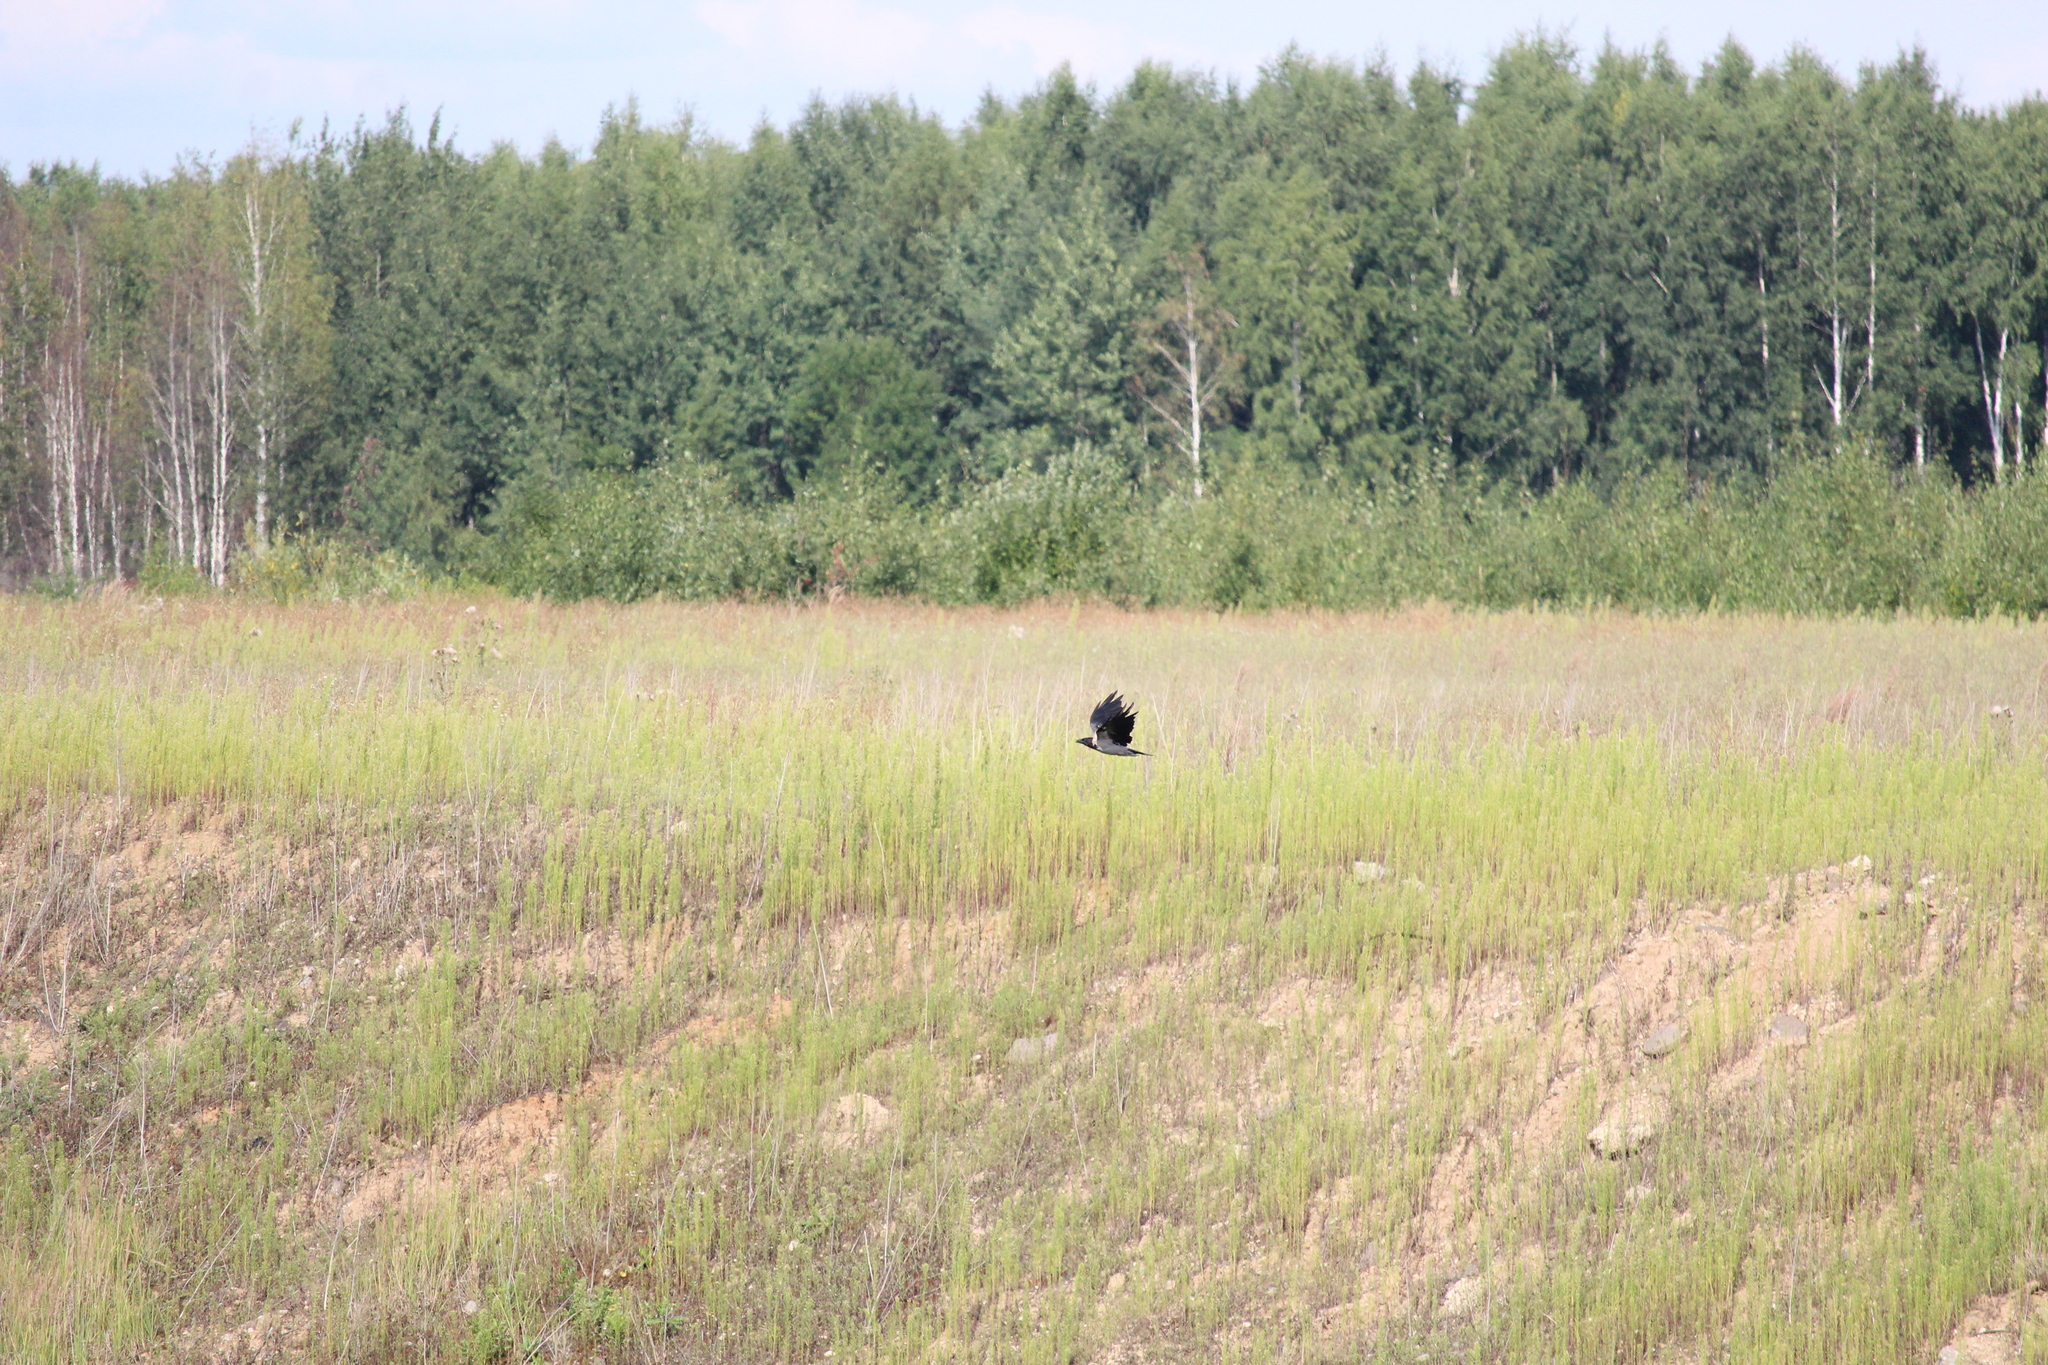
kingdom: Animalia
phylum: Chordata
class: Aves
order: Passeriformes
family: Corvidae
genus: Corvus
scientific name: Corvus cornix
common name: Hooded crow
